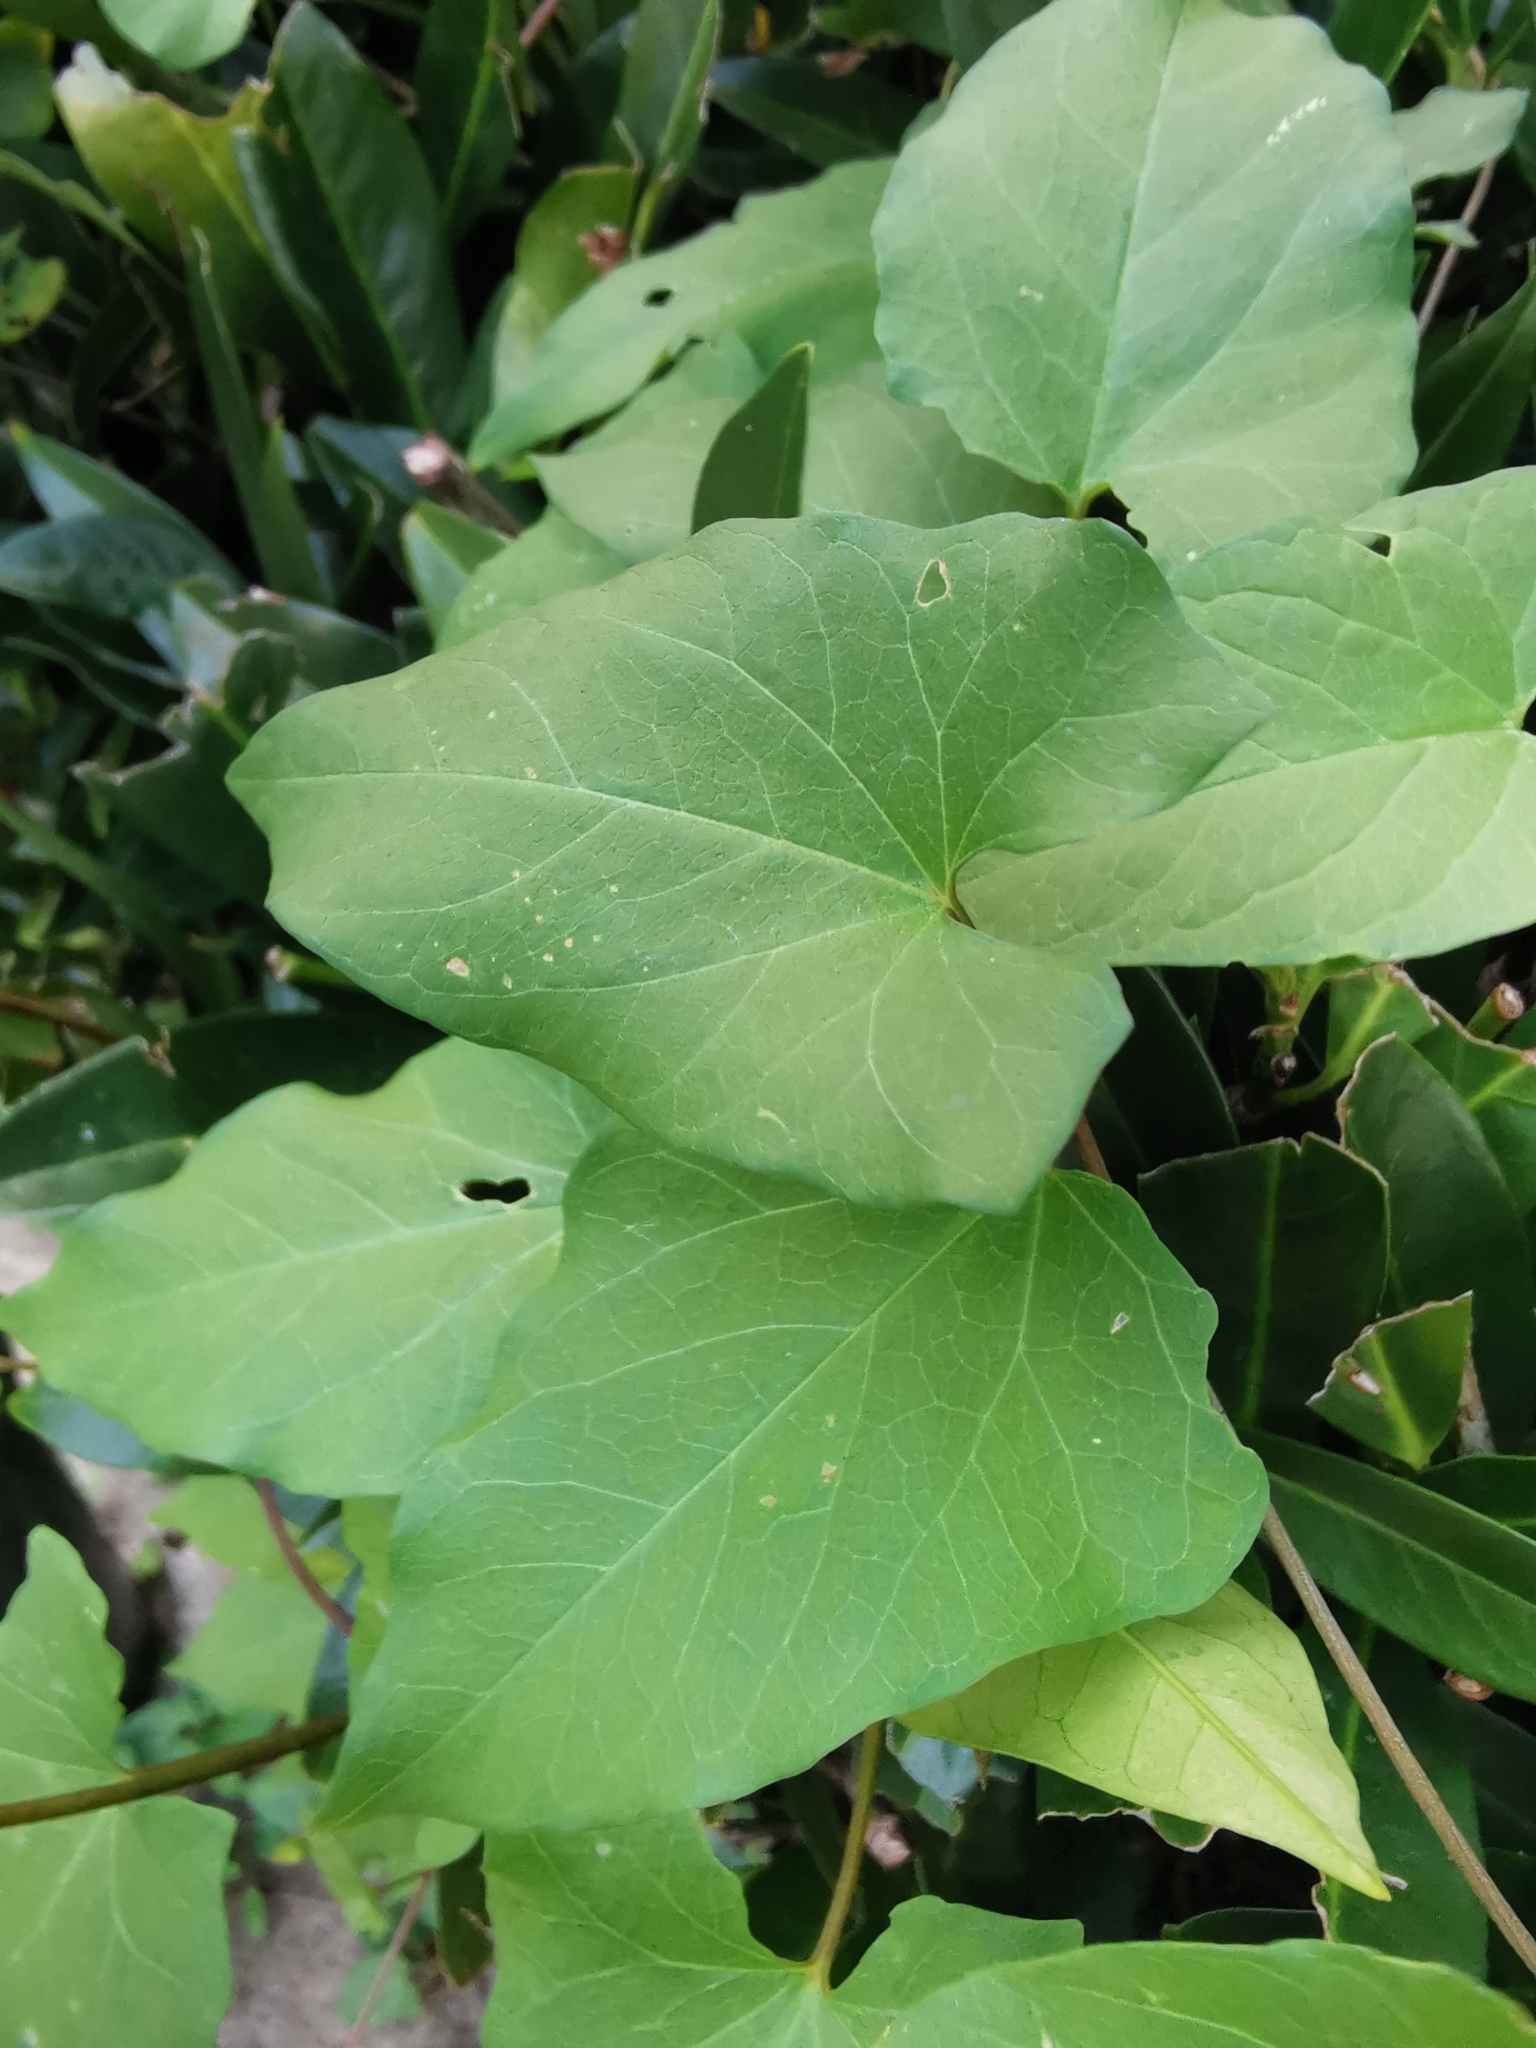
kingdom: Plantae
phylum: Tracheophyta
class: Magnoliopsida
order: Solanales
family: Convolvulaceae
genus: Calystegia
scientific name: Calystegia silvatica
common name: Large bindweed
